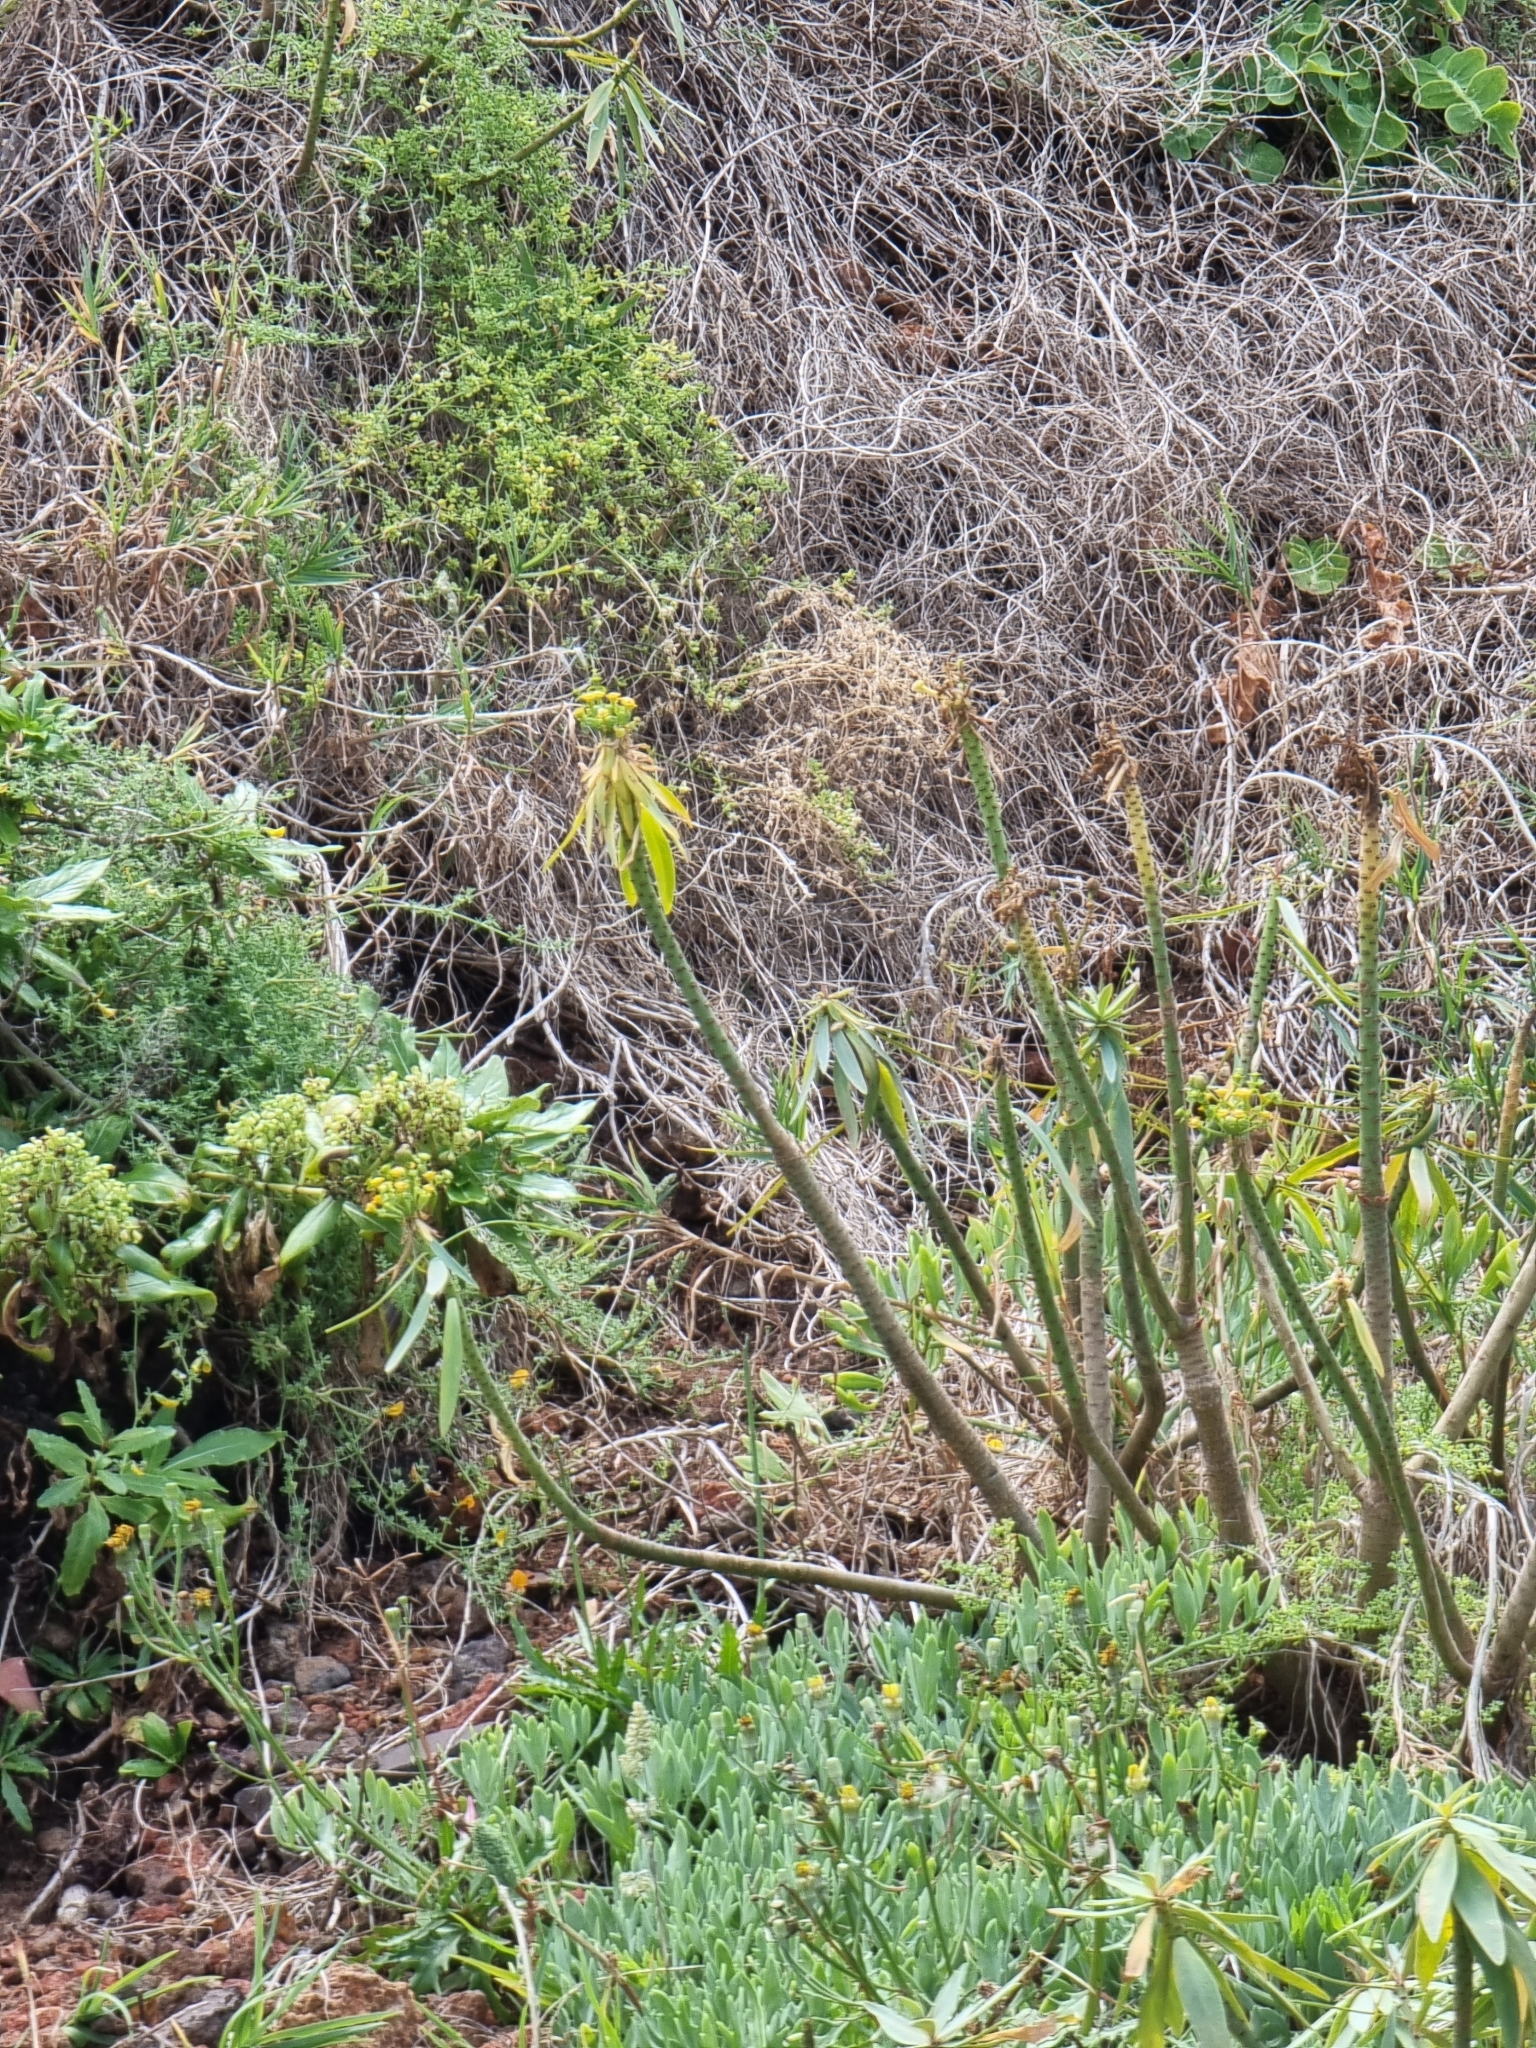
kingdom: Plantae
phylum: Tracheophyta
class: Magnoliopsida
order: Malpighiales
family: Euphorbiaceae
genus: Euphorbia
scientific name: Euphorbia piscatoria
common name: Fish-stunning spurge
